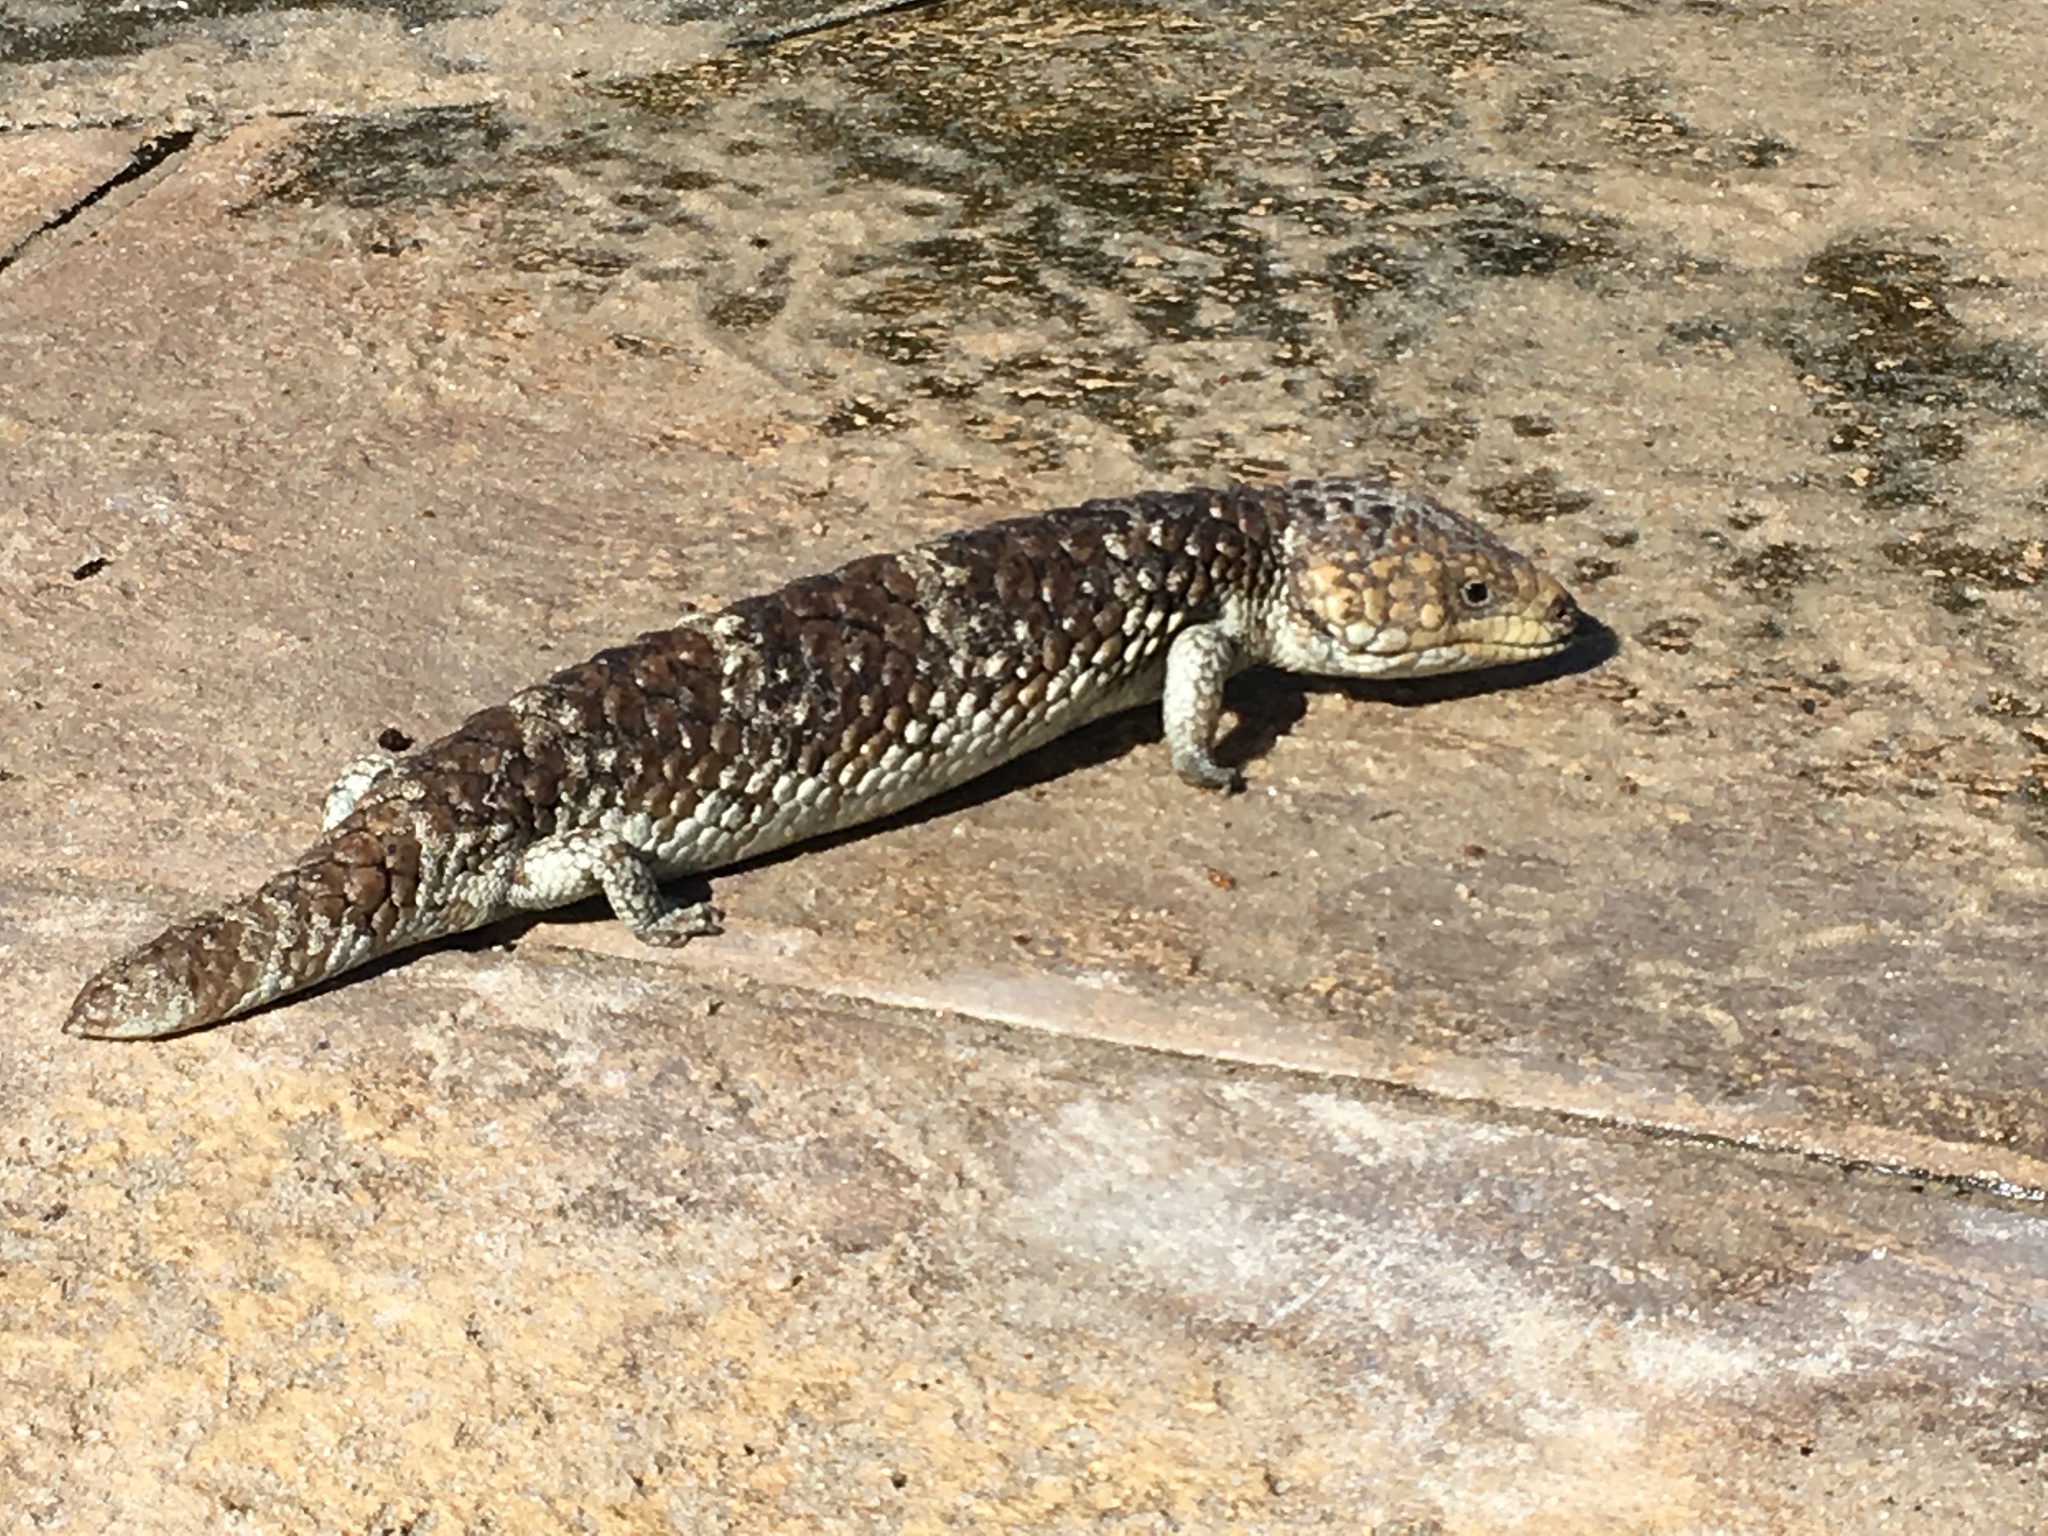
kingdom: Animalia
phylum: Chordata
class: Squamata
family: Scincidae
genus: Tiliqua
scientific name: Tiliqua rugosa
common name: Pinecone lizard
